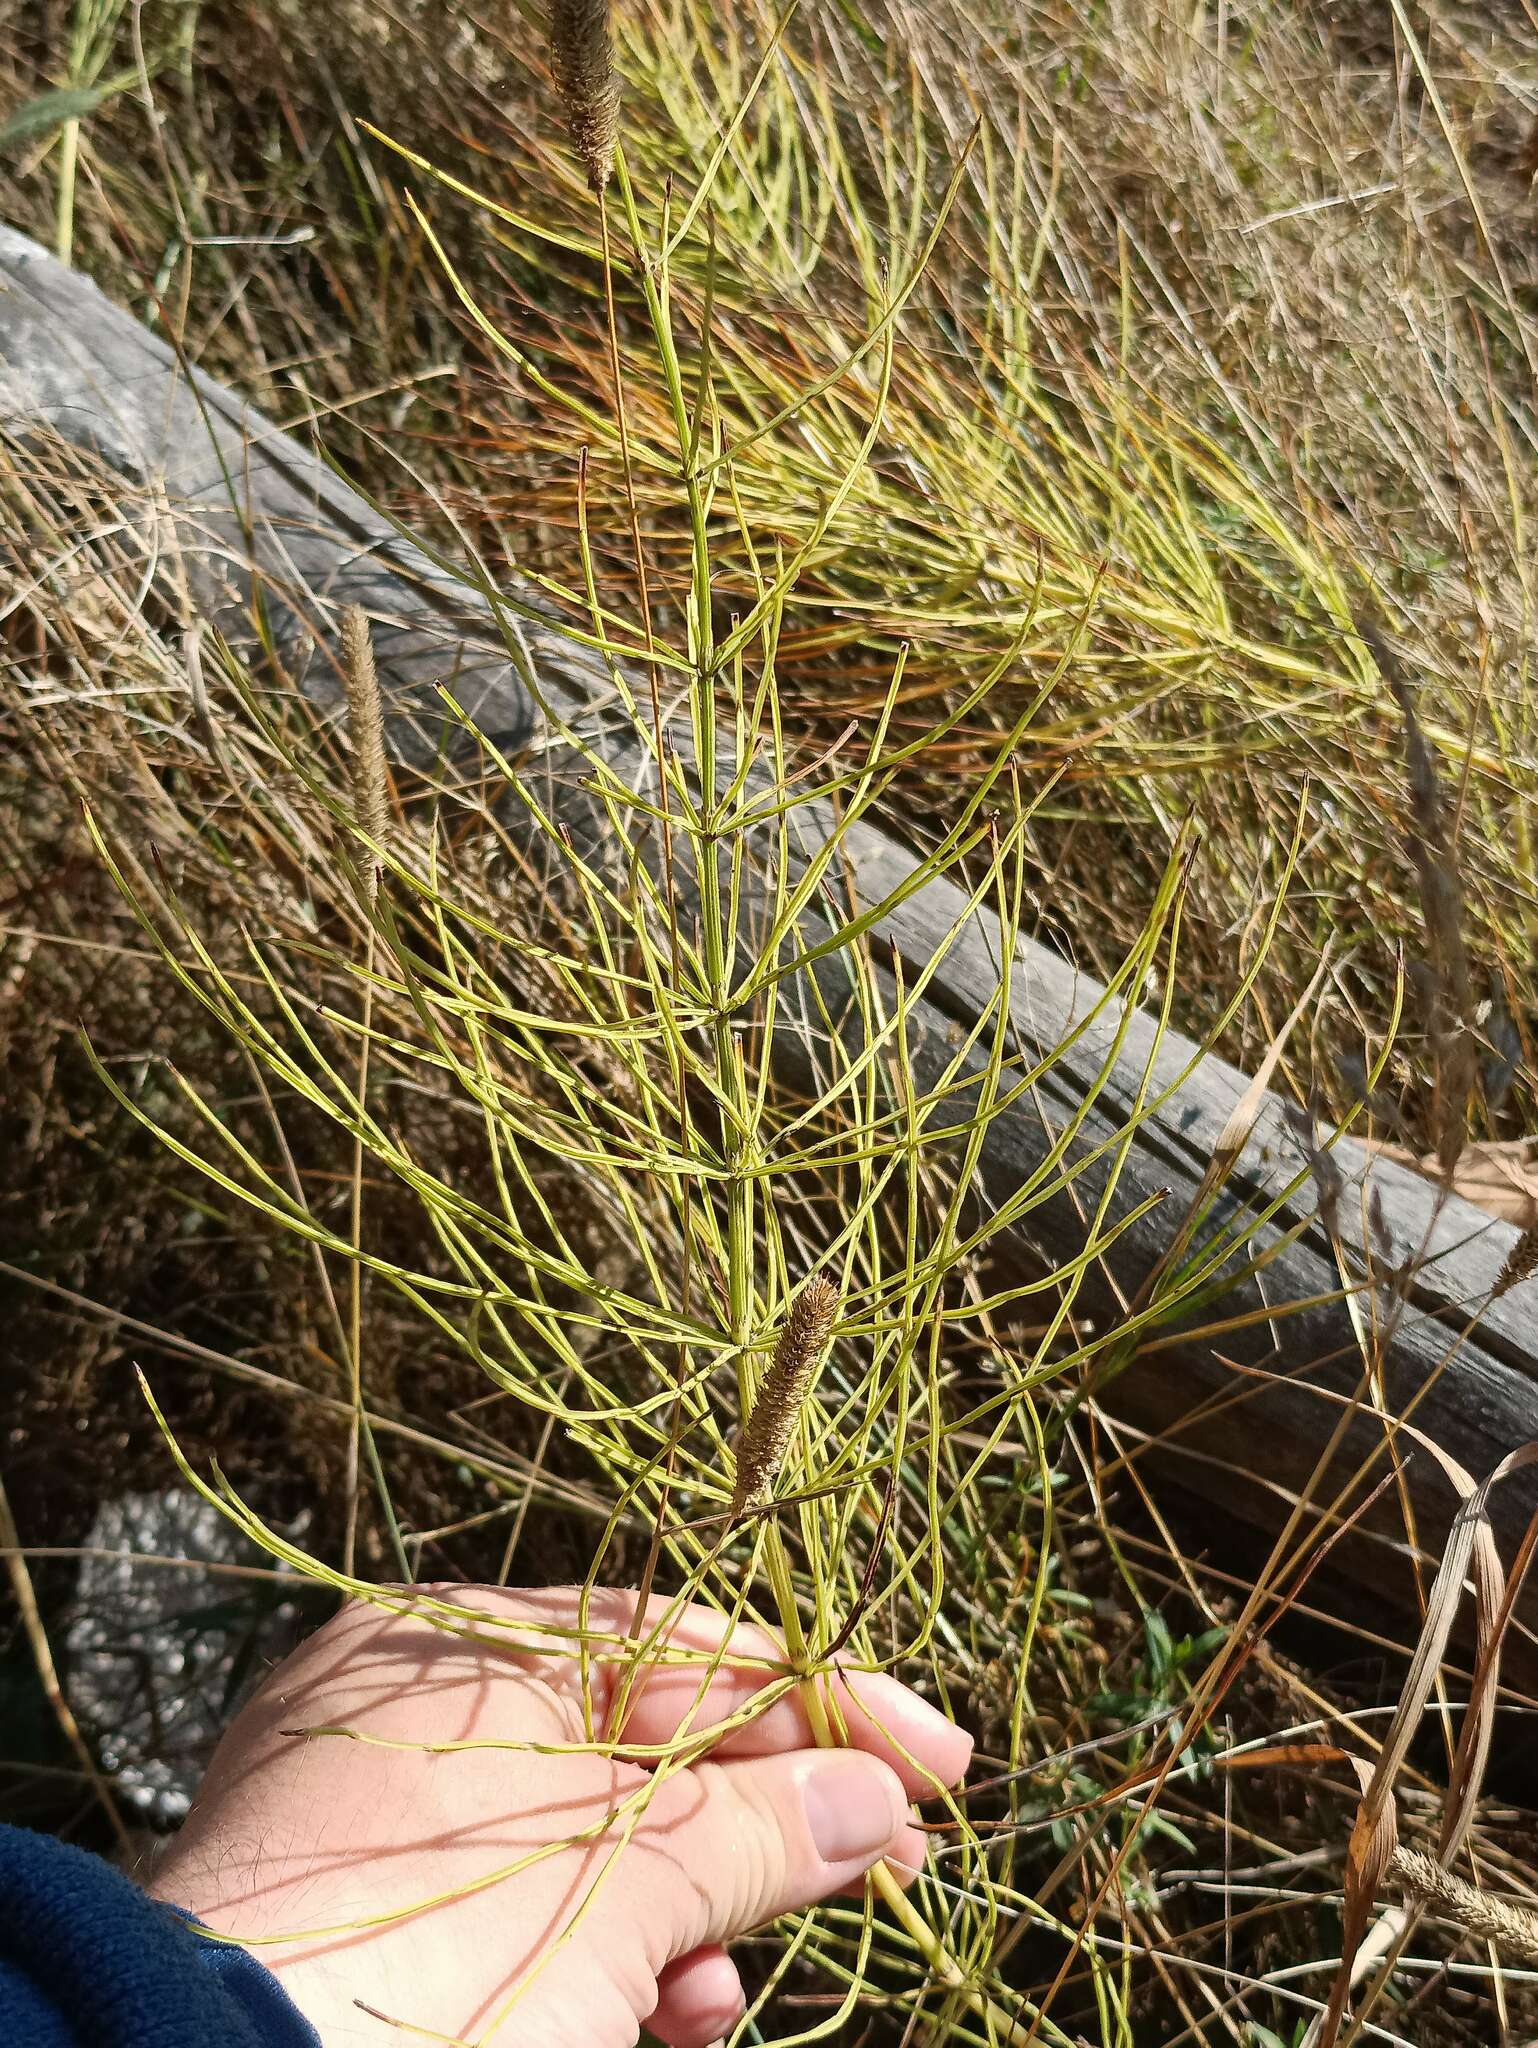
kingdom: Plantae
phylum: Tracheophyta
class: Polypodiopsida
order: Equisetales
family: Equisetaceae
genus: Equisetum
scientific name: Equisetum arvense
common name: Field horsetail
